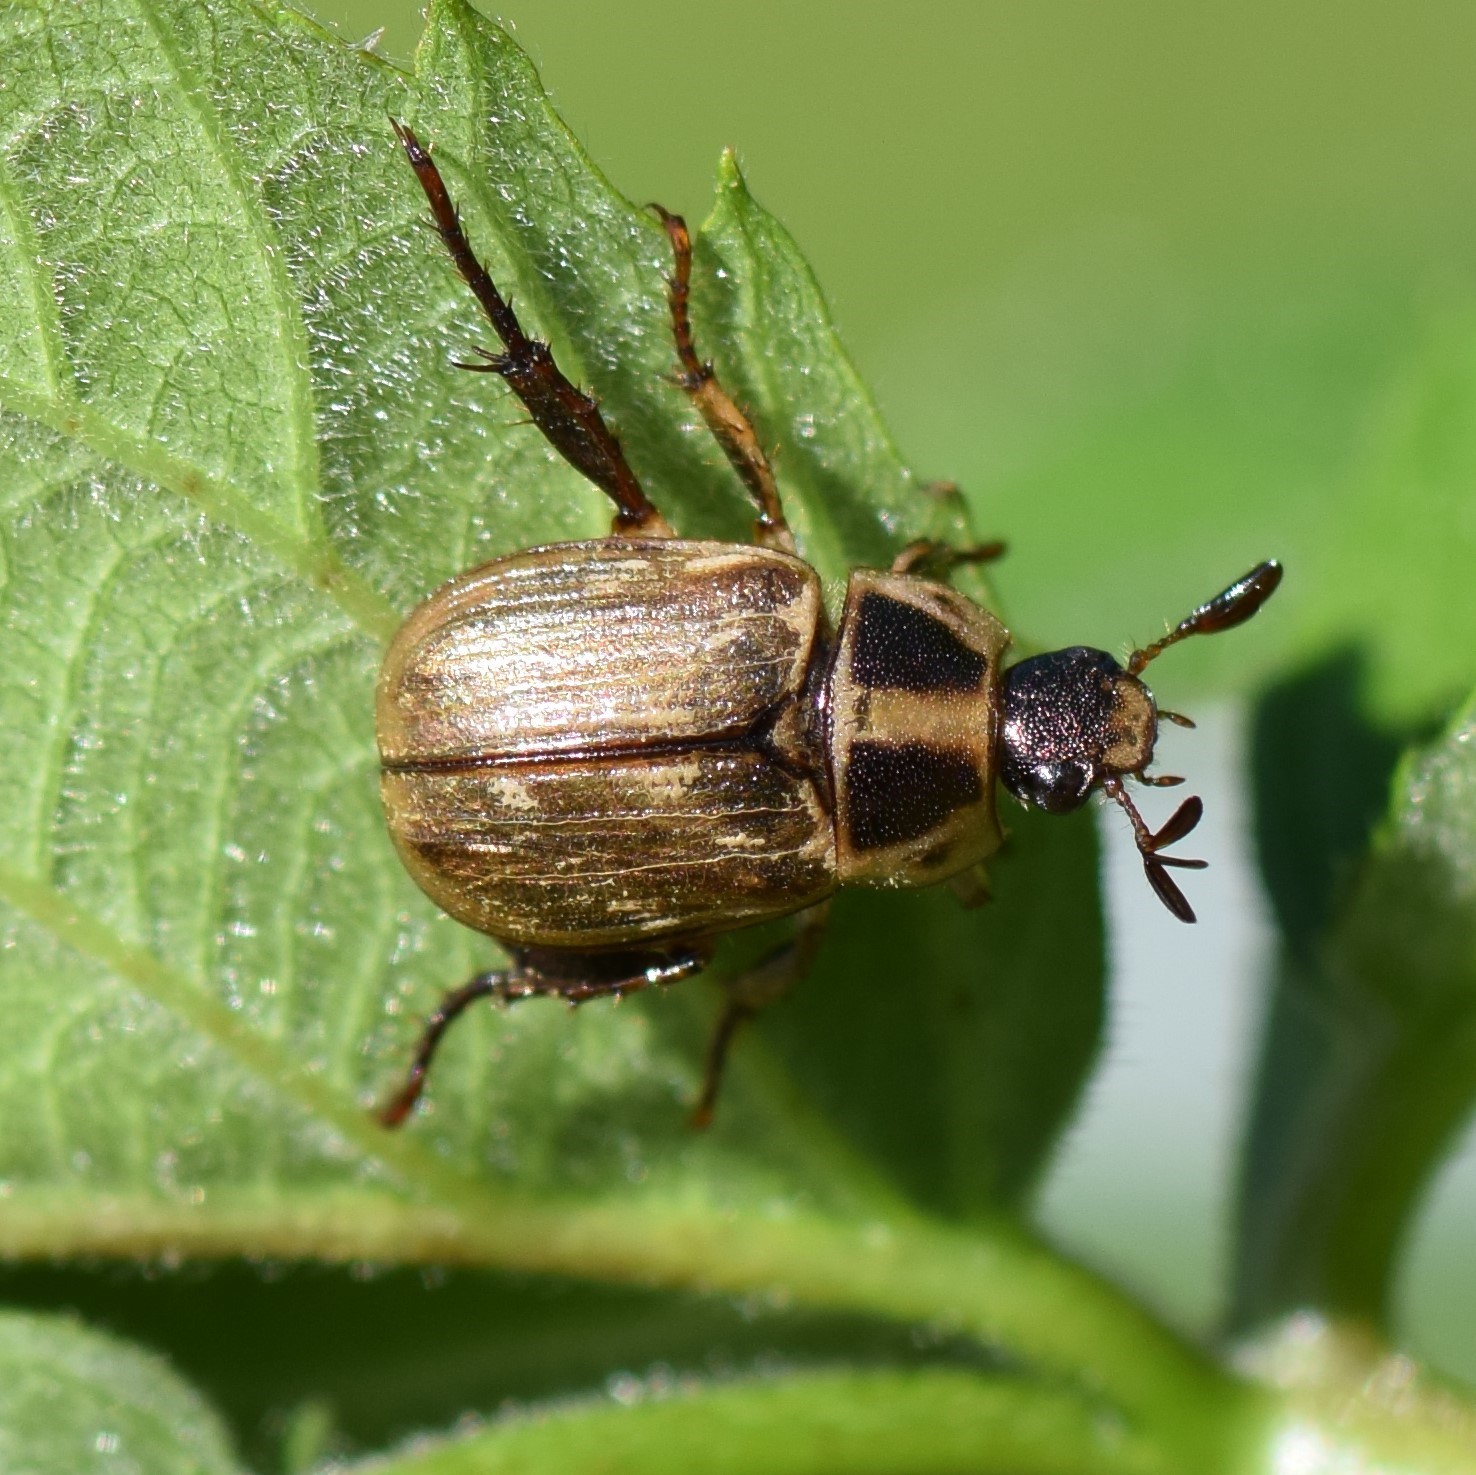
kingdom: Animalia
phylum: Arthropoda
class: Insecta
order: Coleoptera
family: Scarabaeidae
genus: Exomala
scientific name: Exomala orientalis
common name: Oriental beetle
